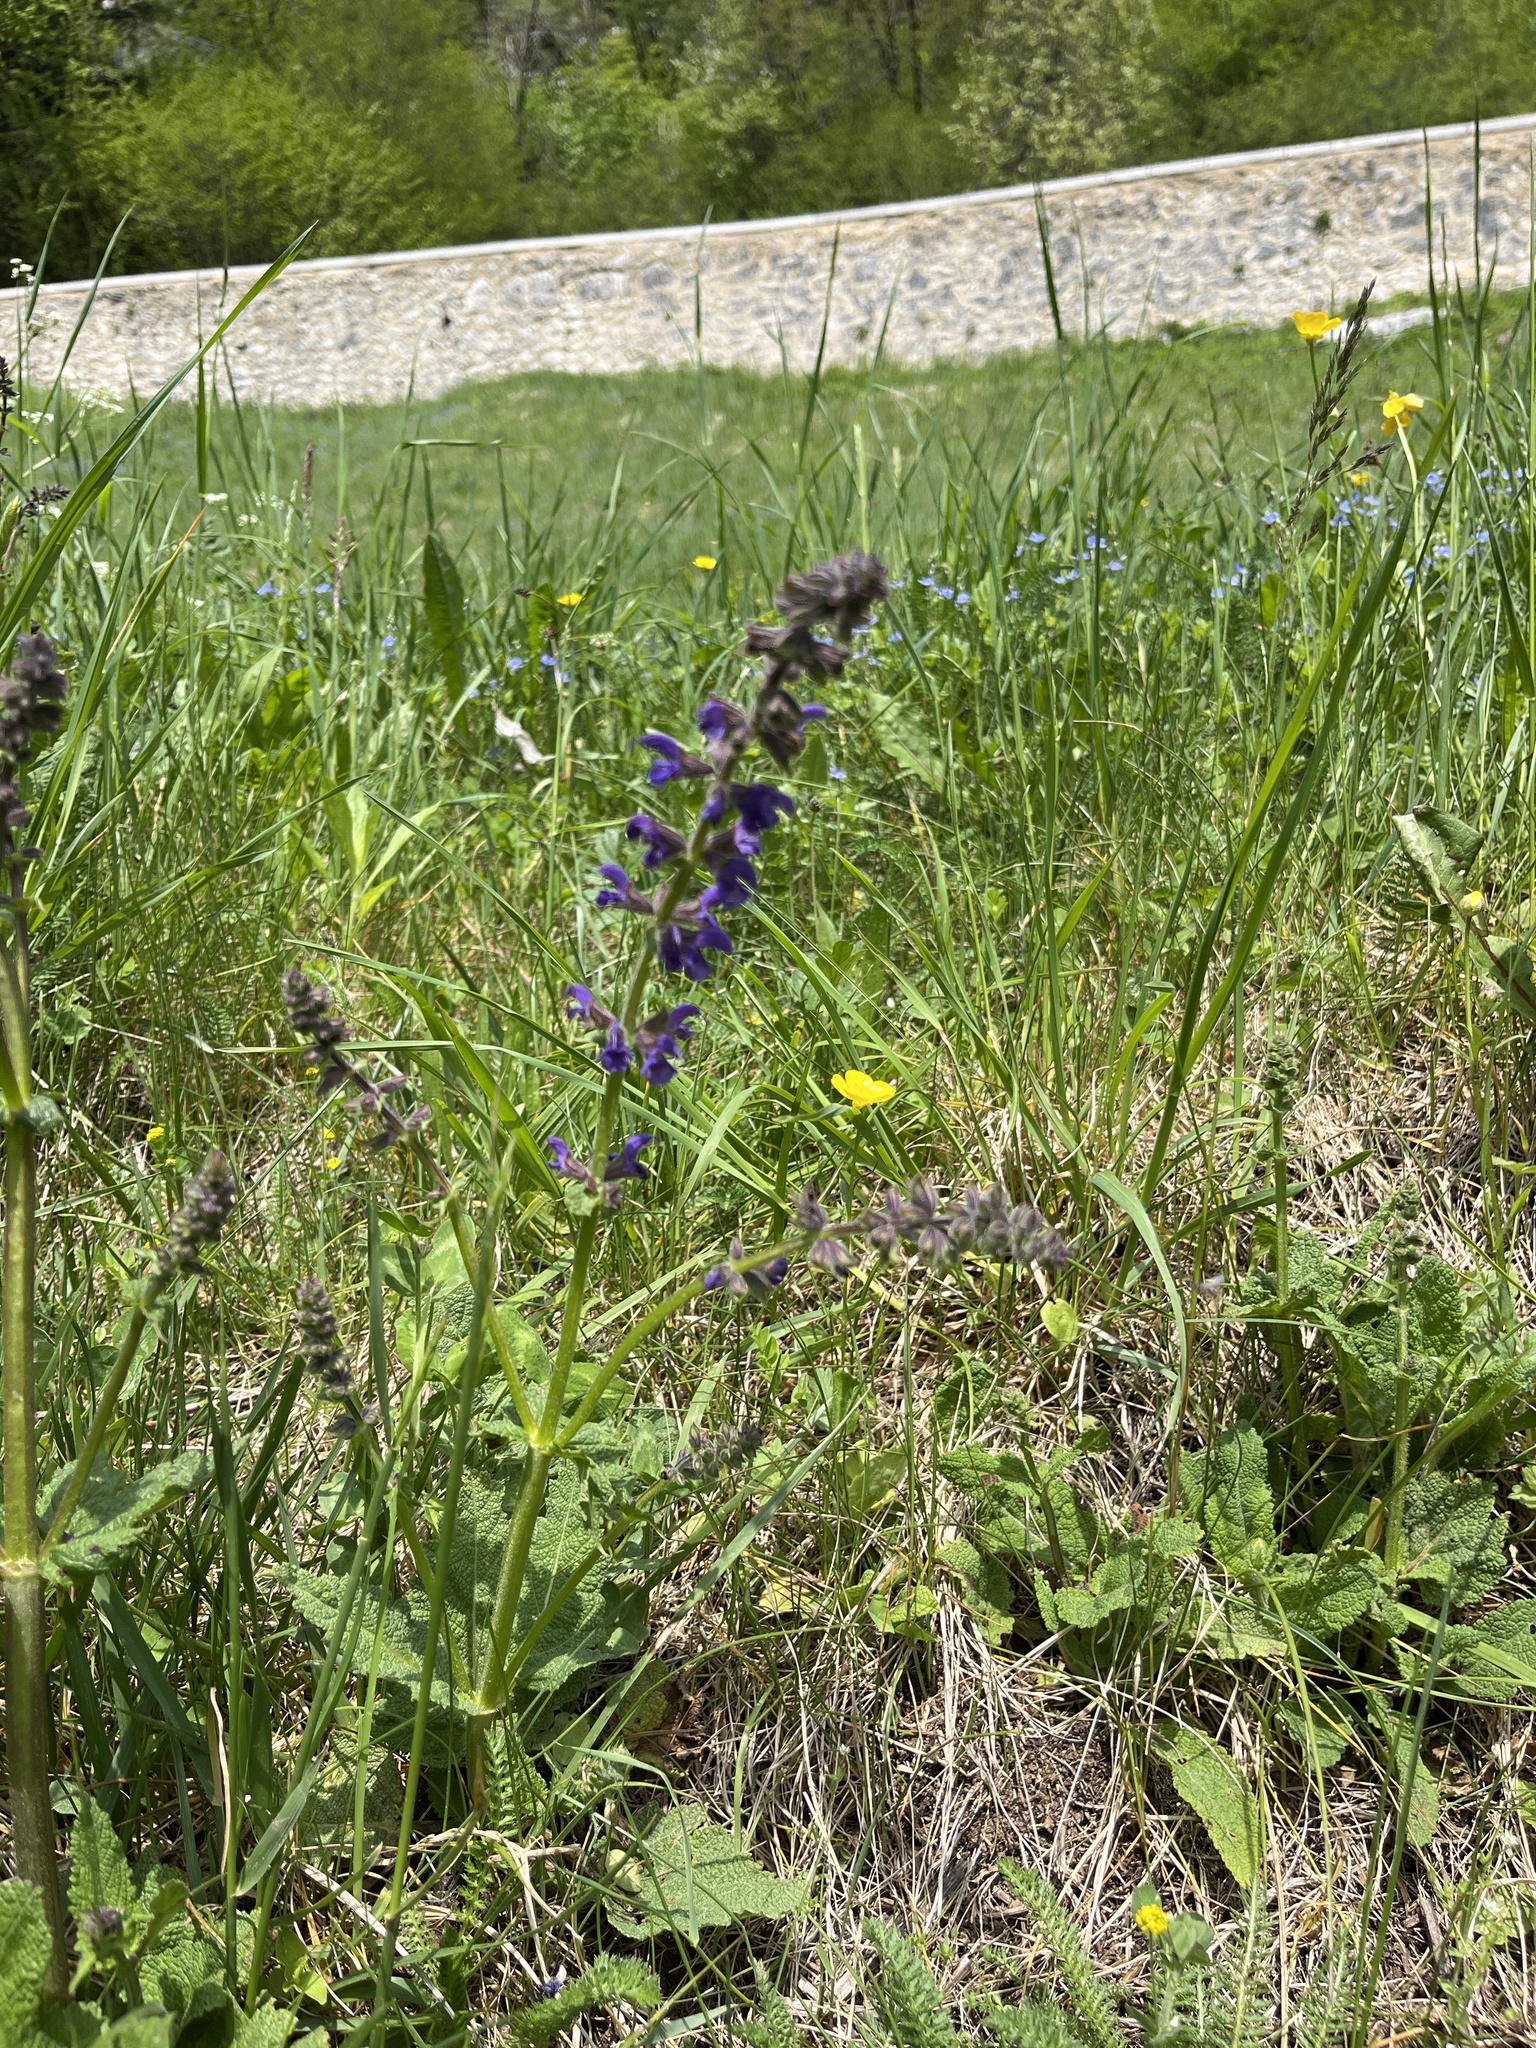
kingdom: Plantae
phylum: Tracheophyta
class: Magnoliopsida
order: Lamiales
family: Lamiaceae
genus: Salvia
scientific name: Salvia pratensis
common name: Meadow sage
